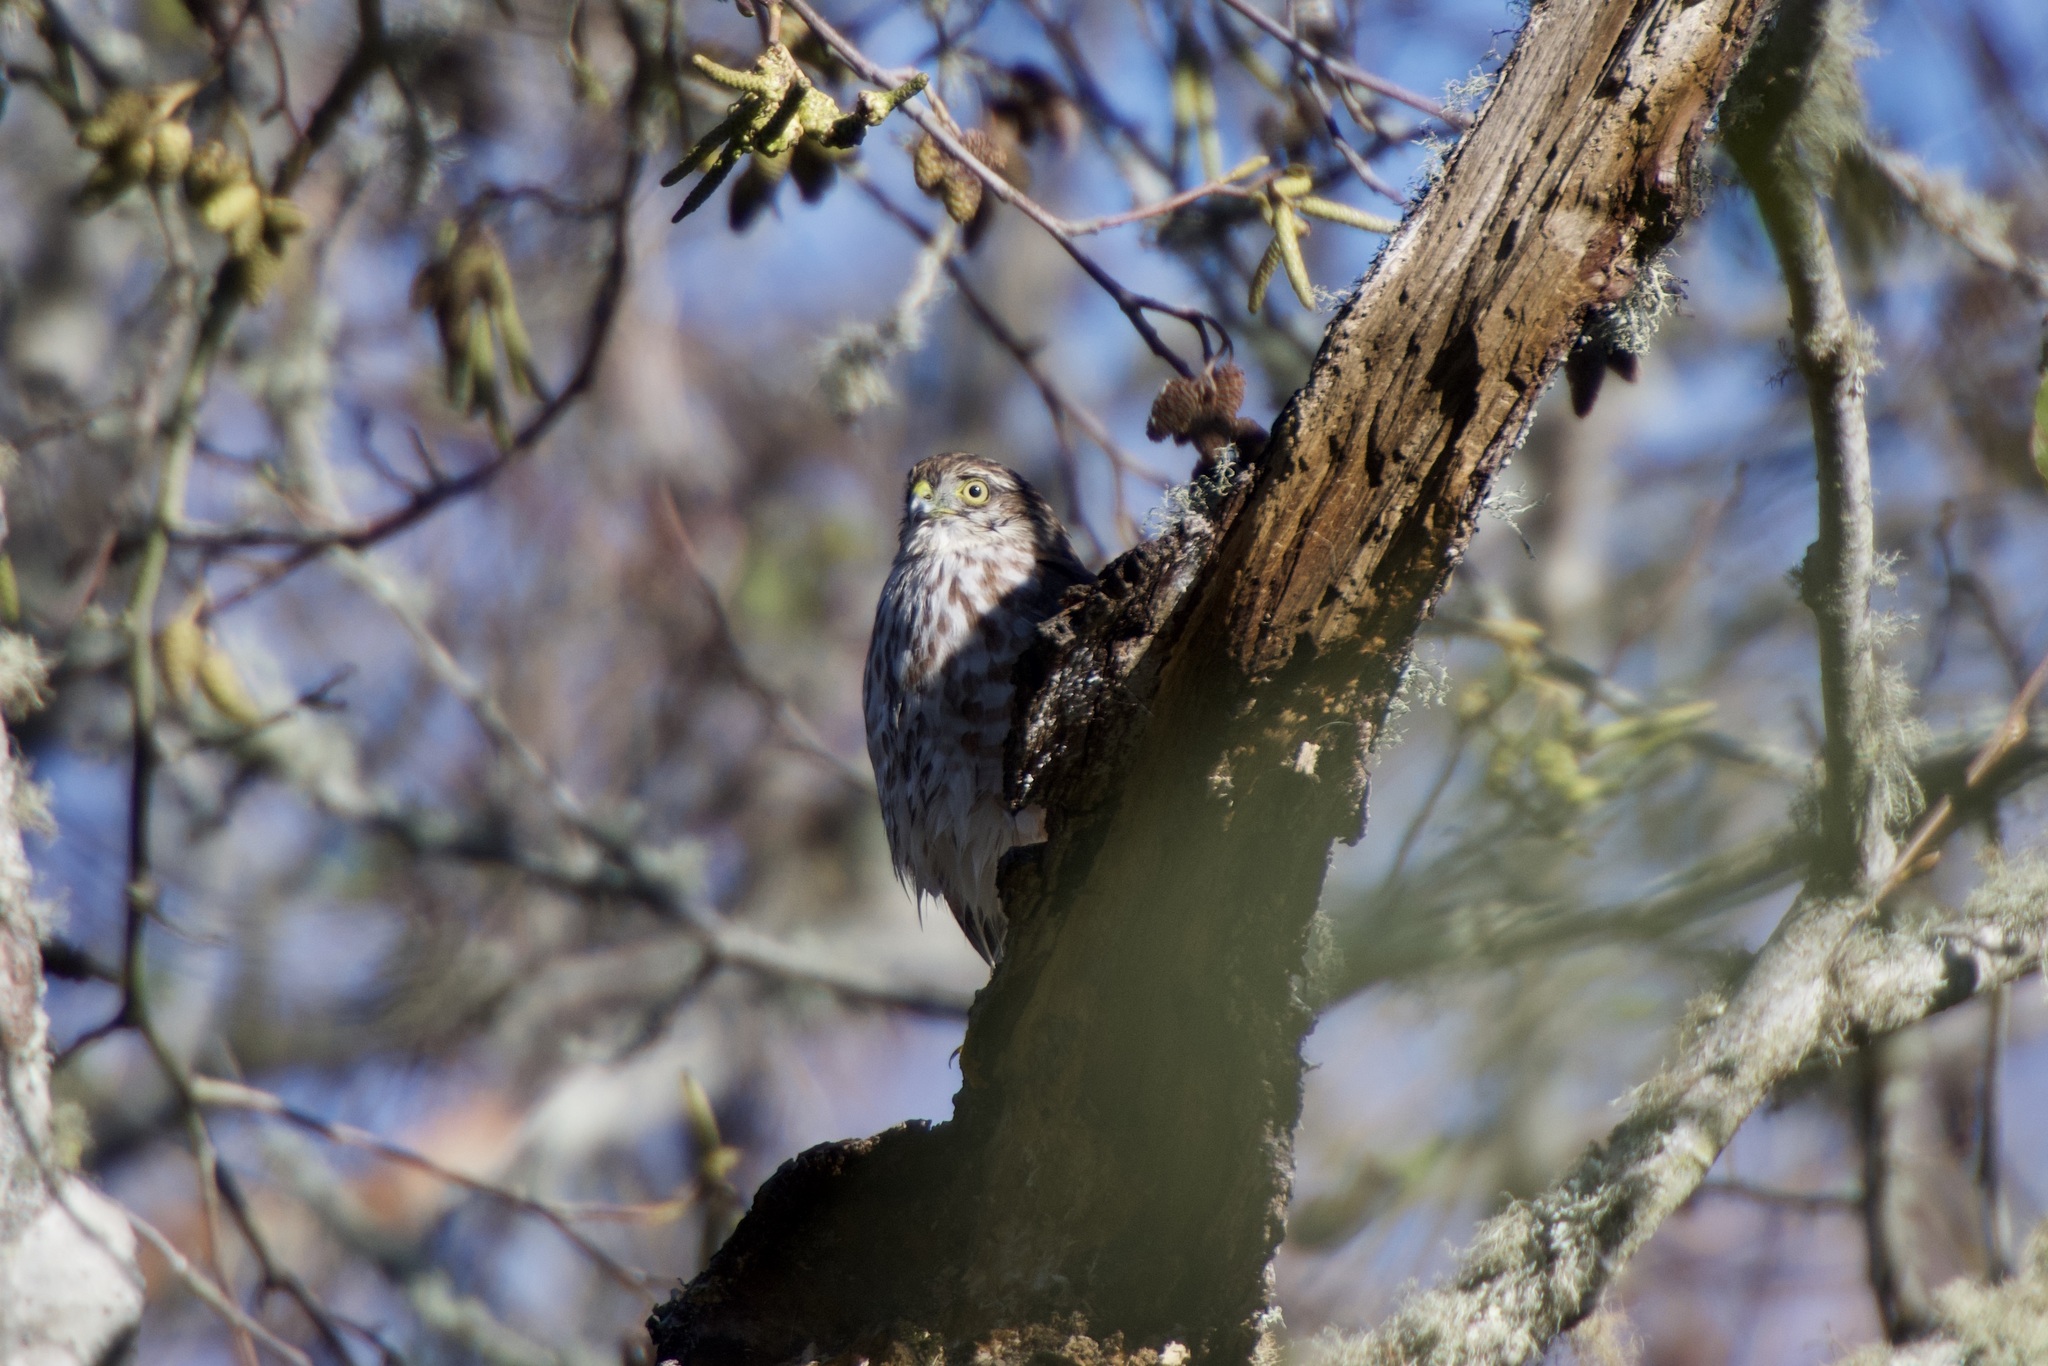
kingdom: Animalia
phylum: Chordata
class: Aves
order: Accipitriformes
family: Accipitridae
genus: Accipiter
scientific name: Accipiter striatus
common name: Sharp-shinned hawk
